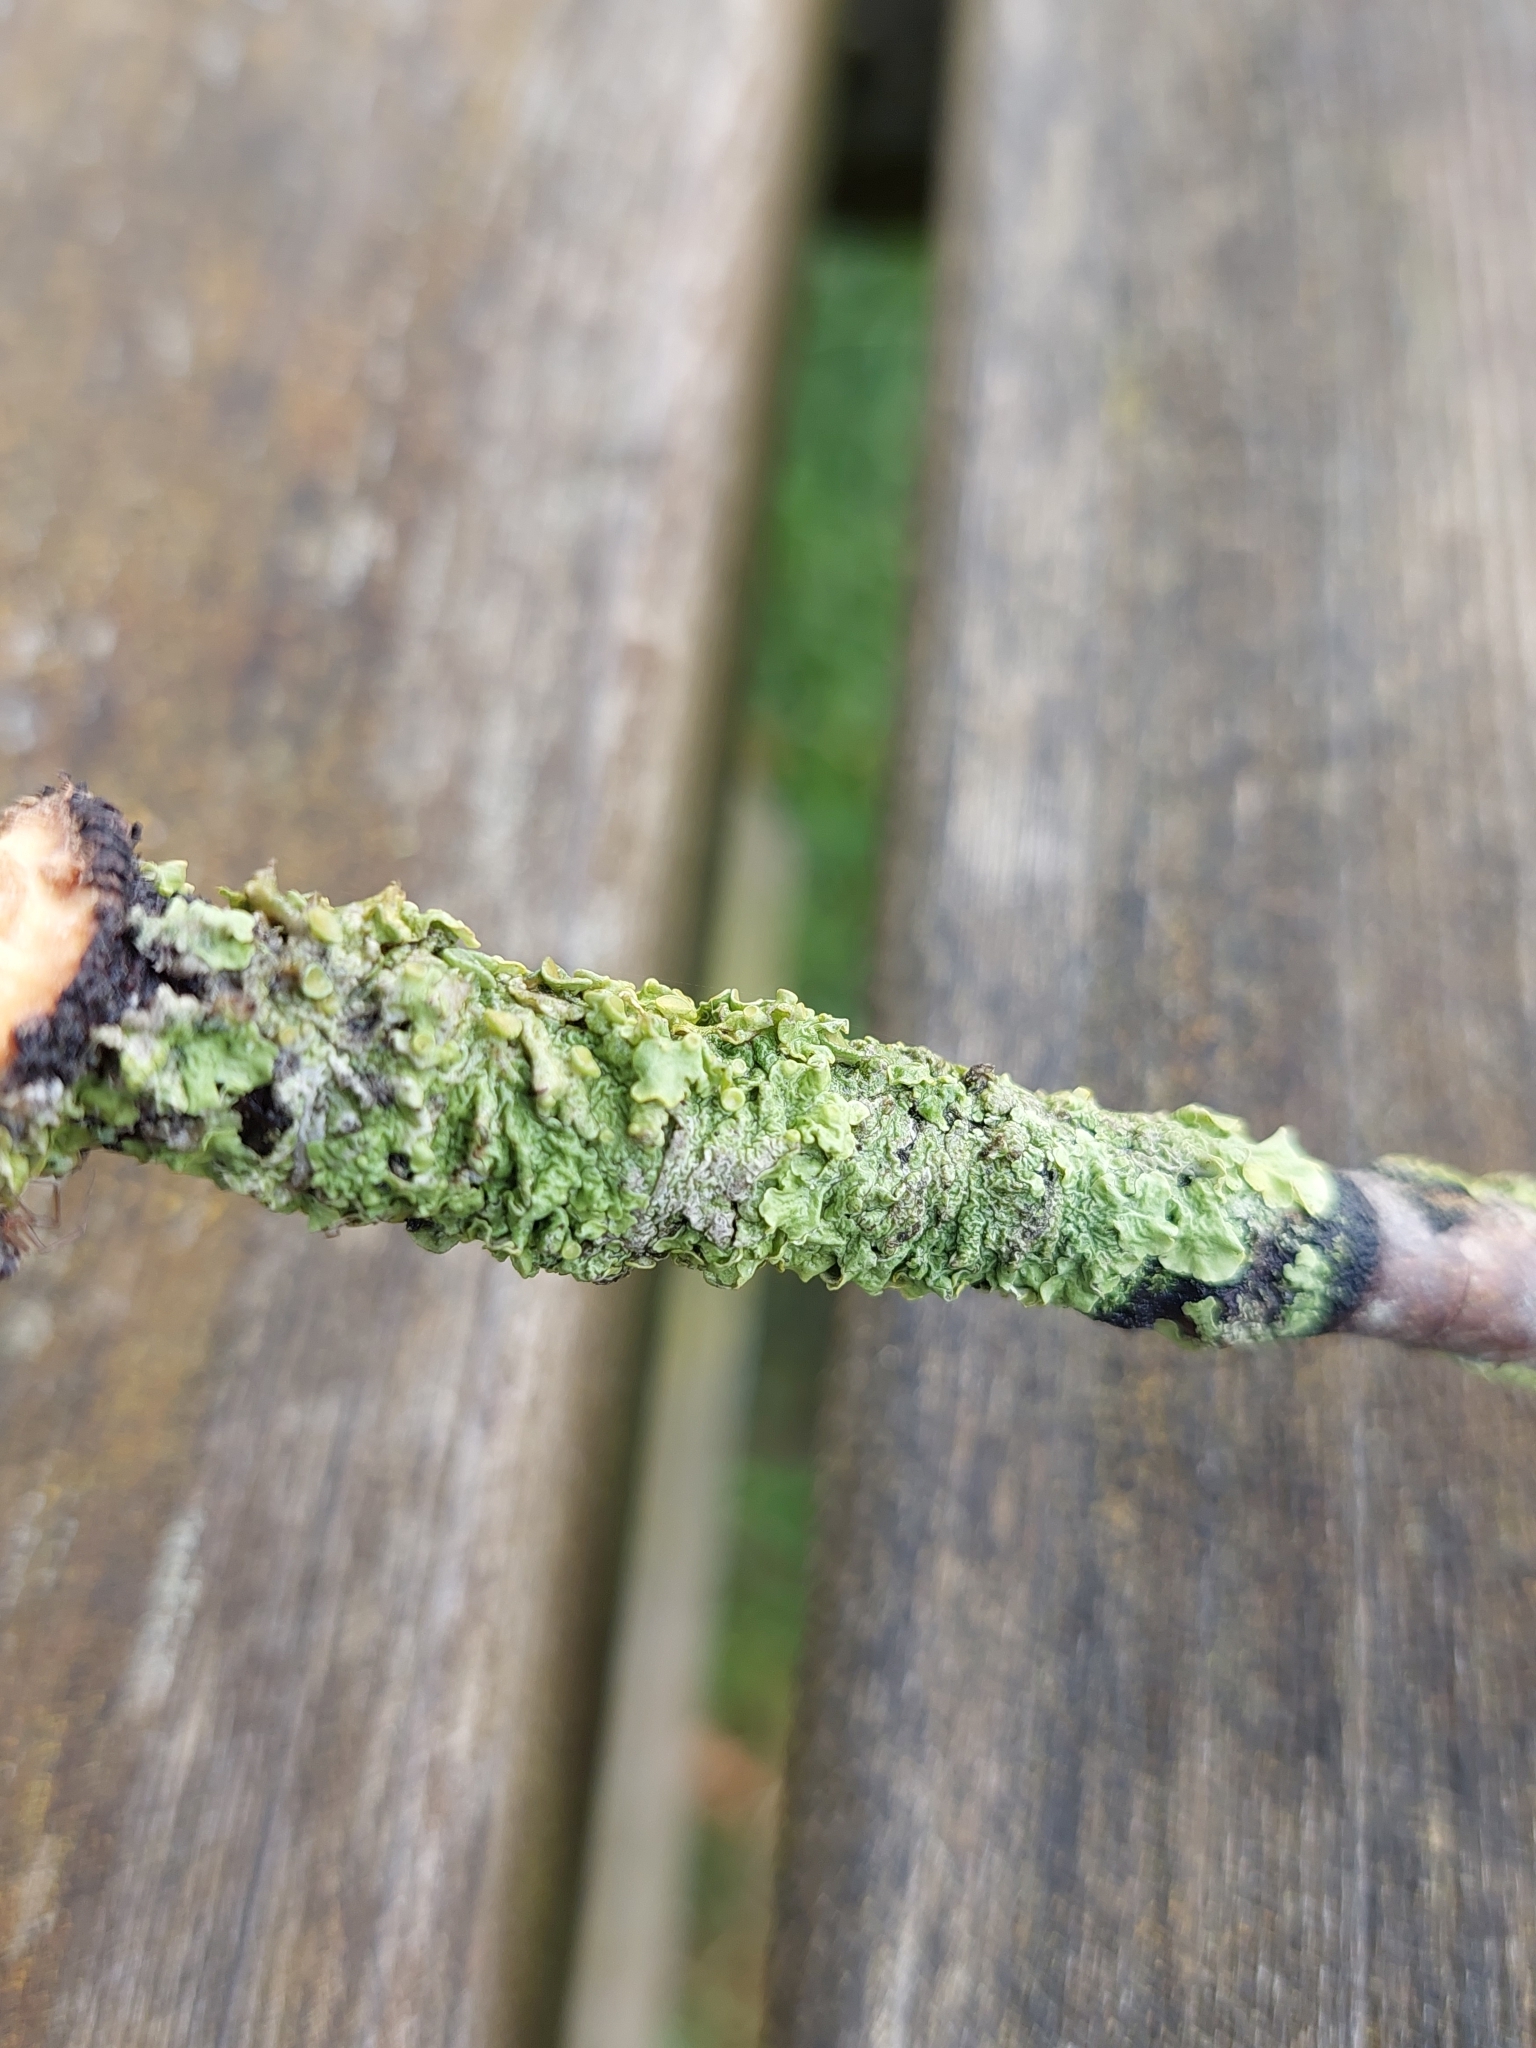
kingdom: Fungi
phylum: Ascomycota
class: Lecanoromycetes
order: Teloschistales
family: Teloschistaceae
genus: Xanthoria
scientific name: Xanthoria parietina
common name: Common orange lichen
